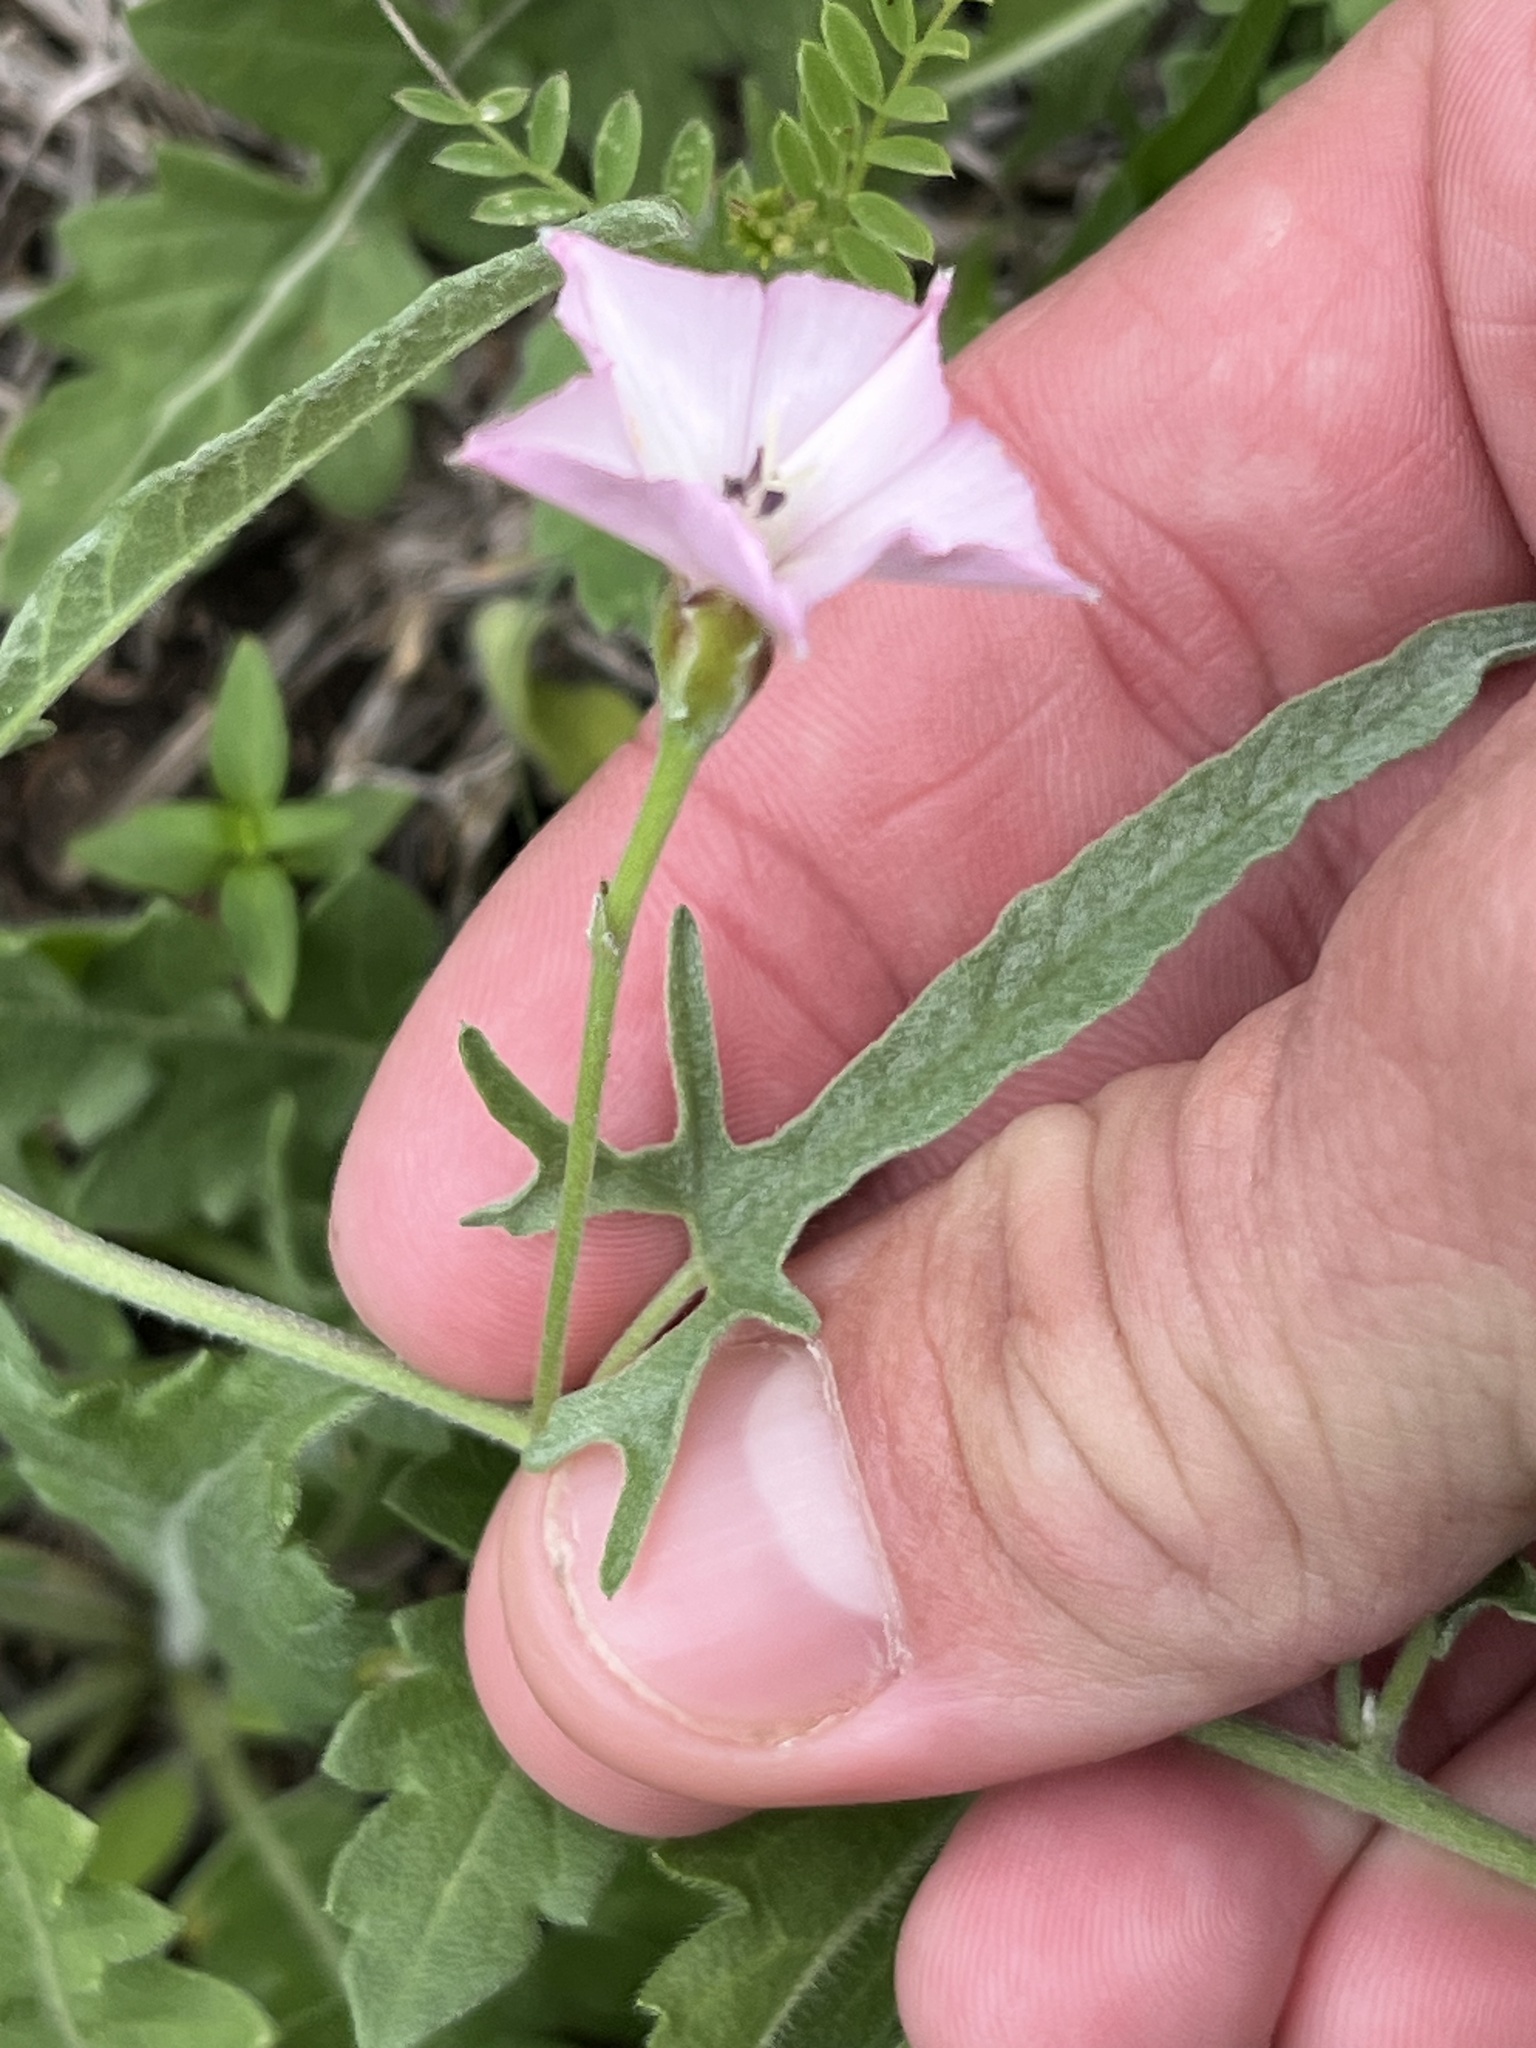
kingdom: Plantae
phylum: Tracheophyta
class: Magnoliopsida
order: Solanales
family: Convolvulaceae
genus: Convolvulus
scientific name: Convolvulus equitans
